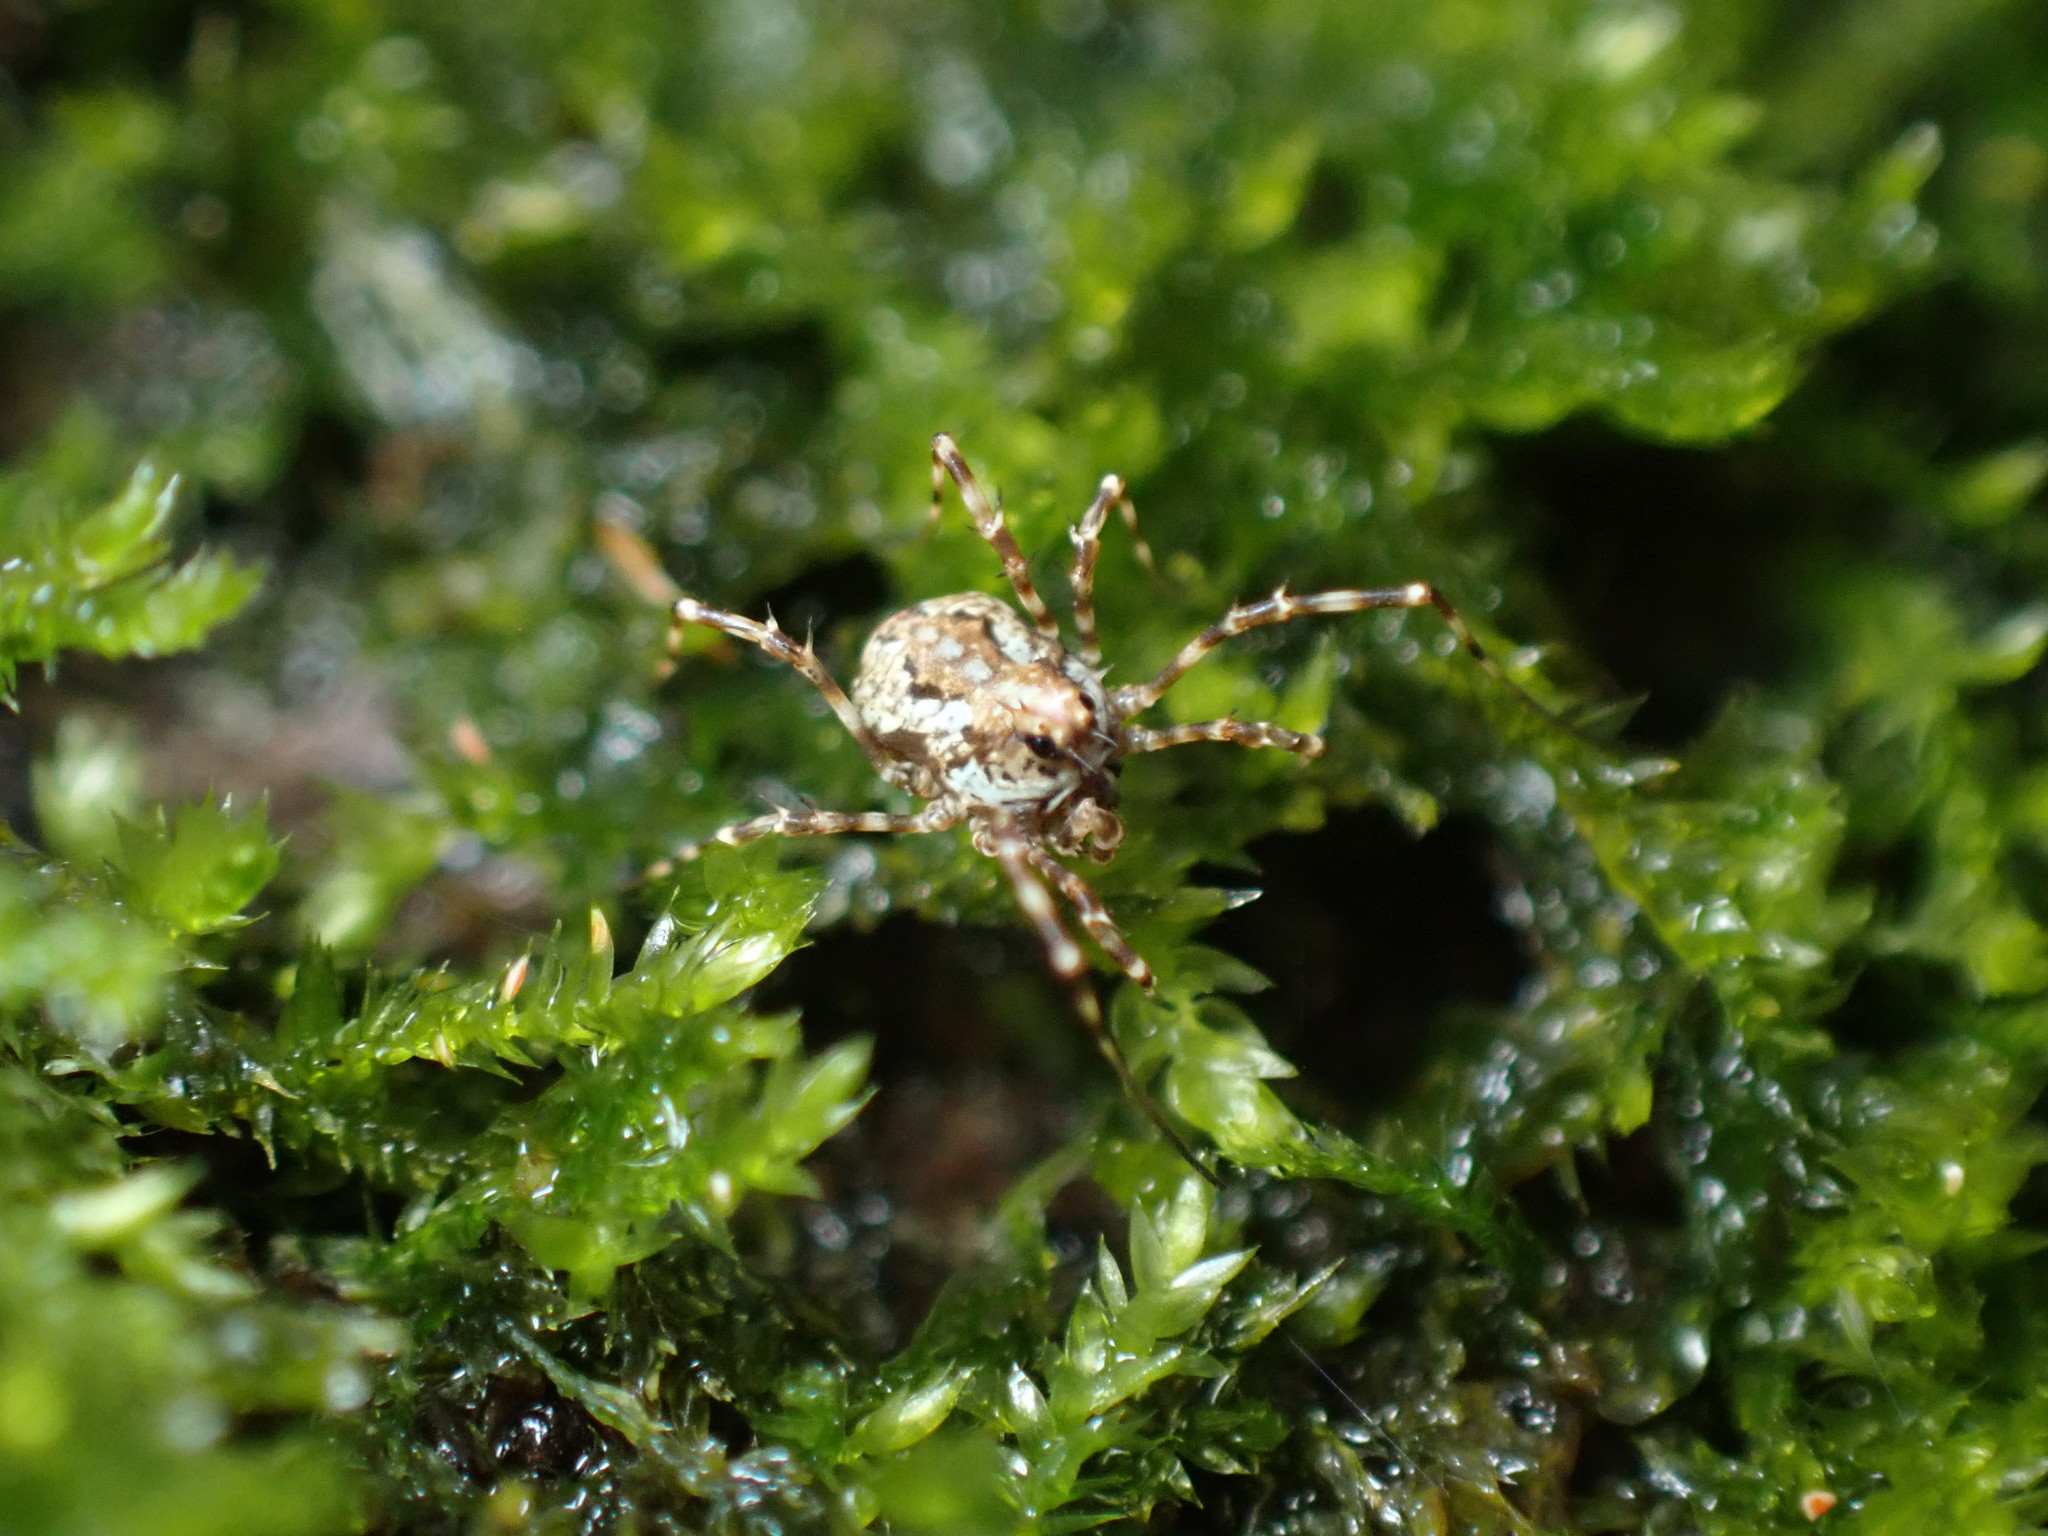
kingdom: Animalia
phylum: Arthropoda
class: Arachnida
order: Opiliones
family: Phalangiidae
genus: Megabunus
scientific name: Megabunus diadema
